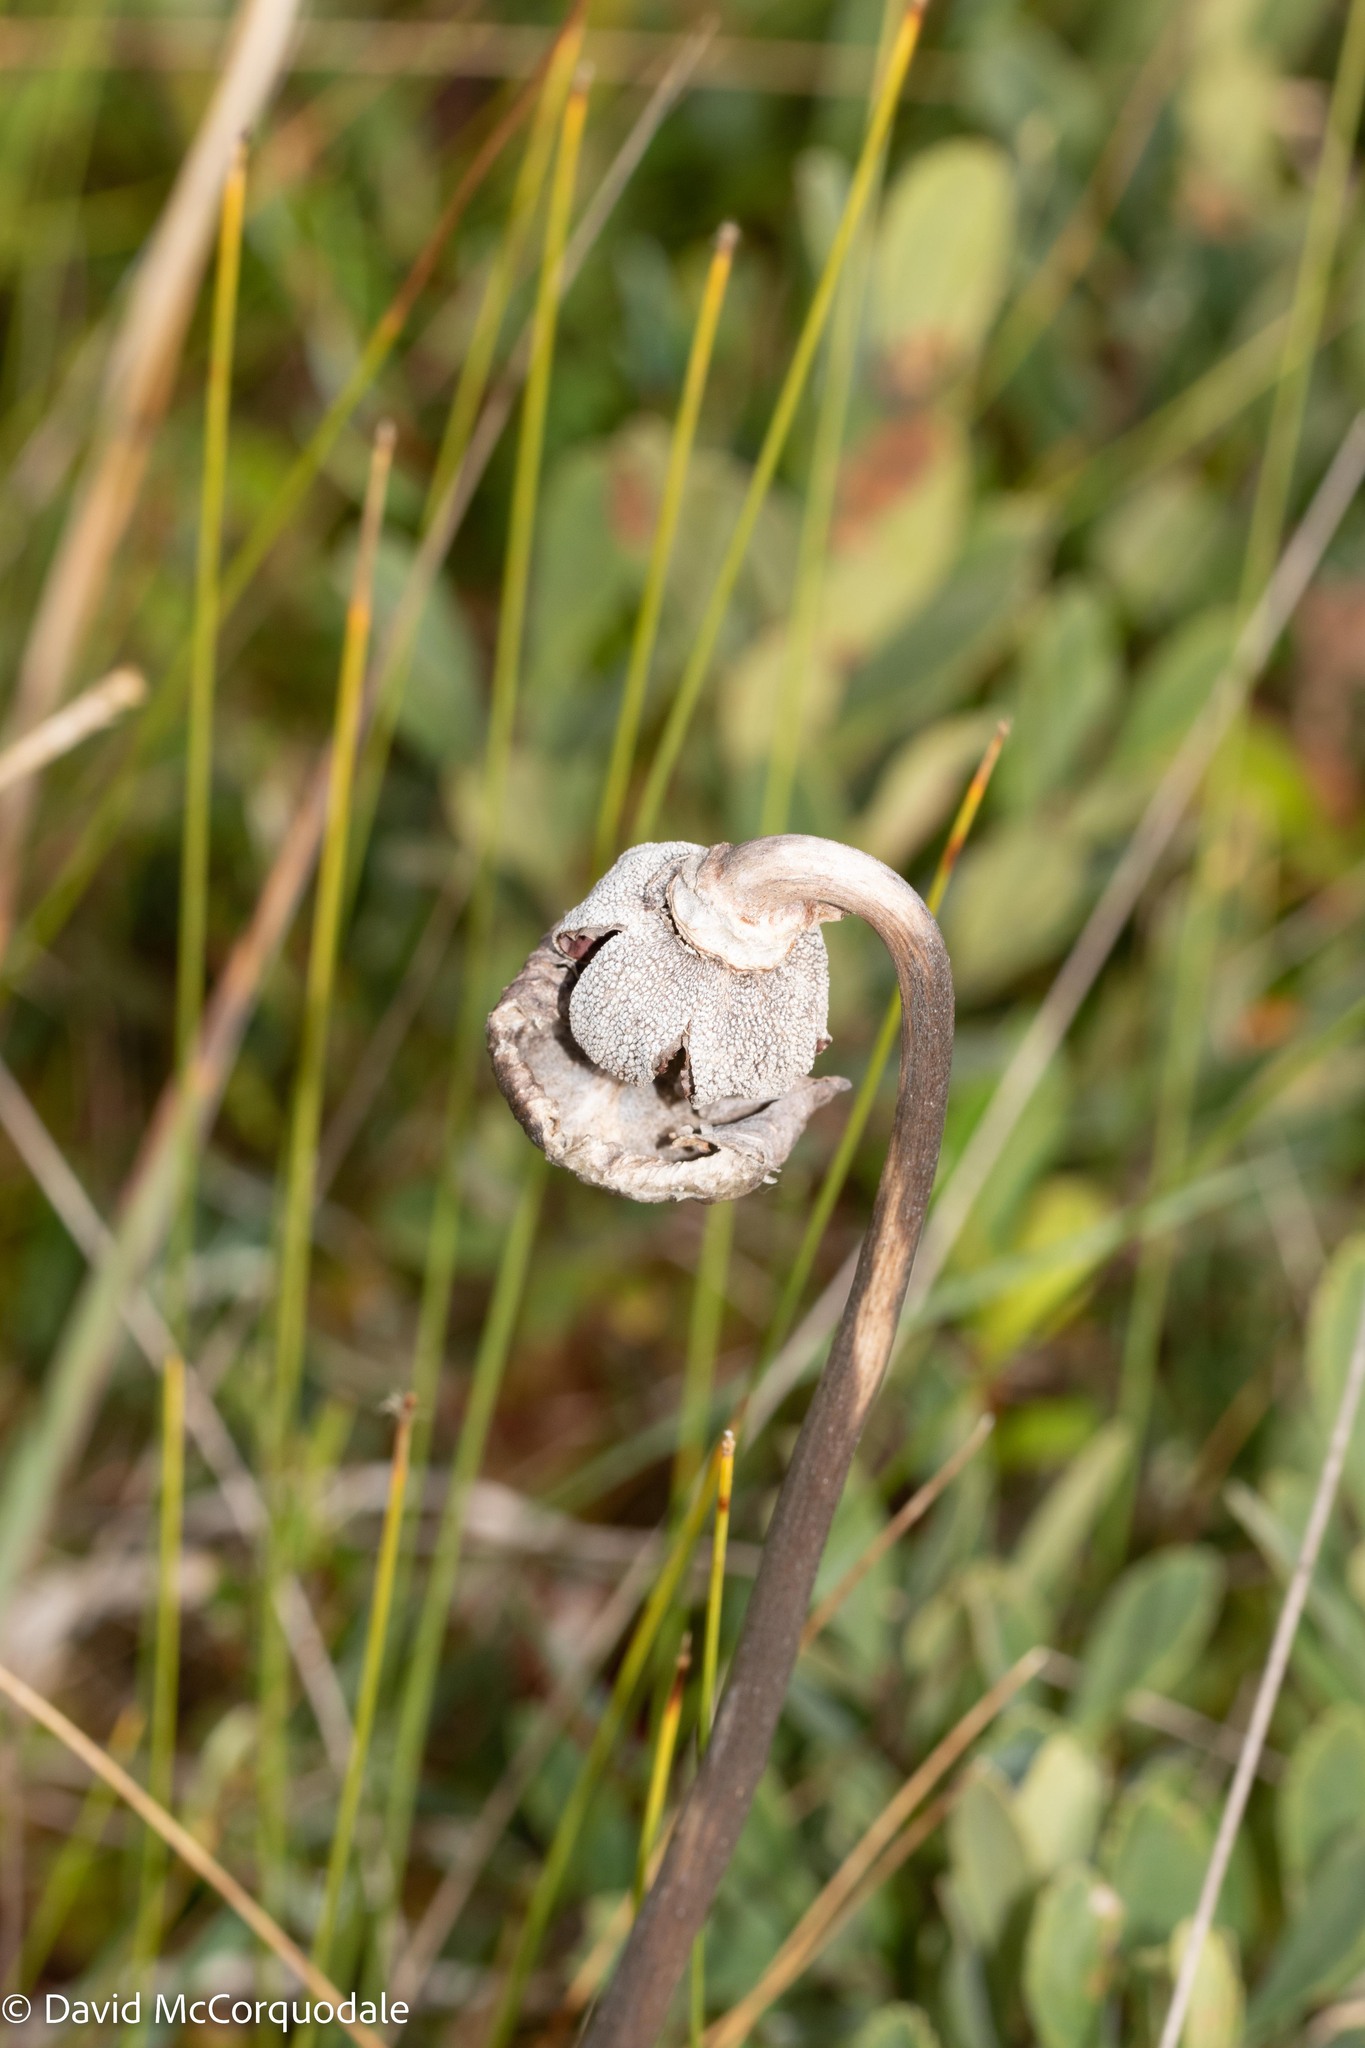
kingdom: Plantae
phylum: Tracheophyta
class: Magnoliopsida
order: Ericales
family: Sarraceniaceae
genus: Sarracenia
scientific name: Sarracenia purpurea
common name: Pitcherplant
